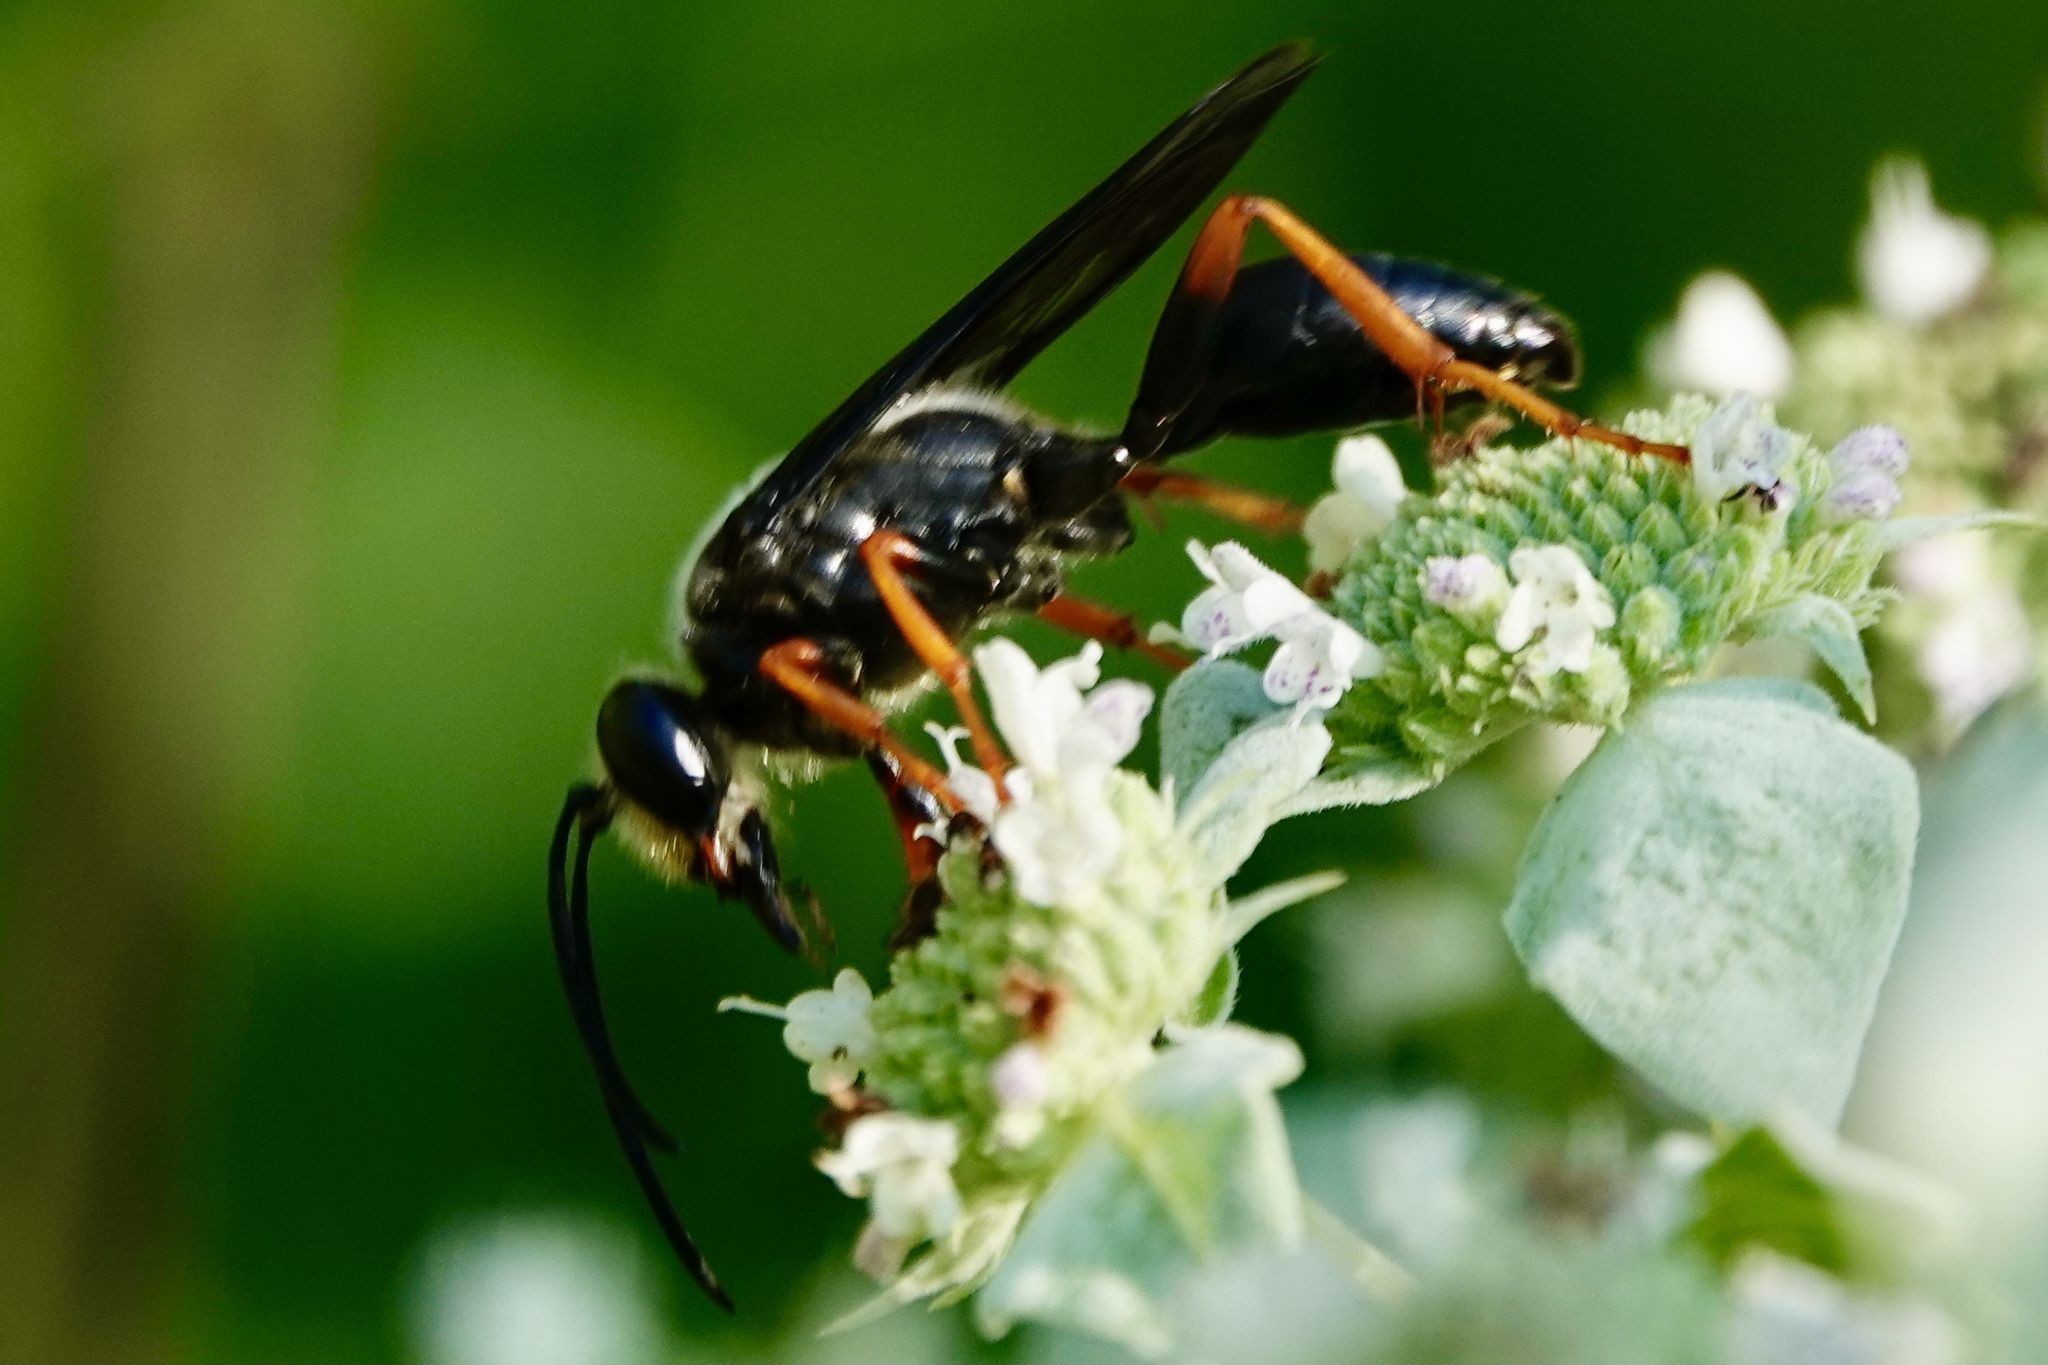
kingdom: Animalia
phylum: Arthropoda
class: Insecta
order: Hymenoptera
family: Sphecidae
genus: Sphex
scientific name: Sphex nudus
